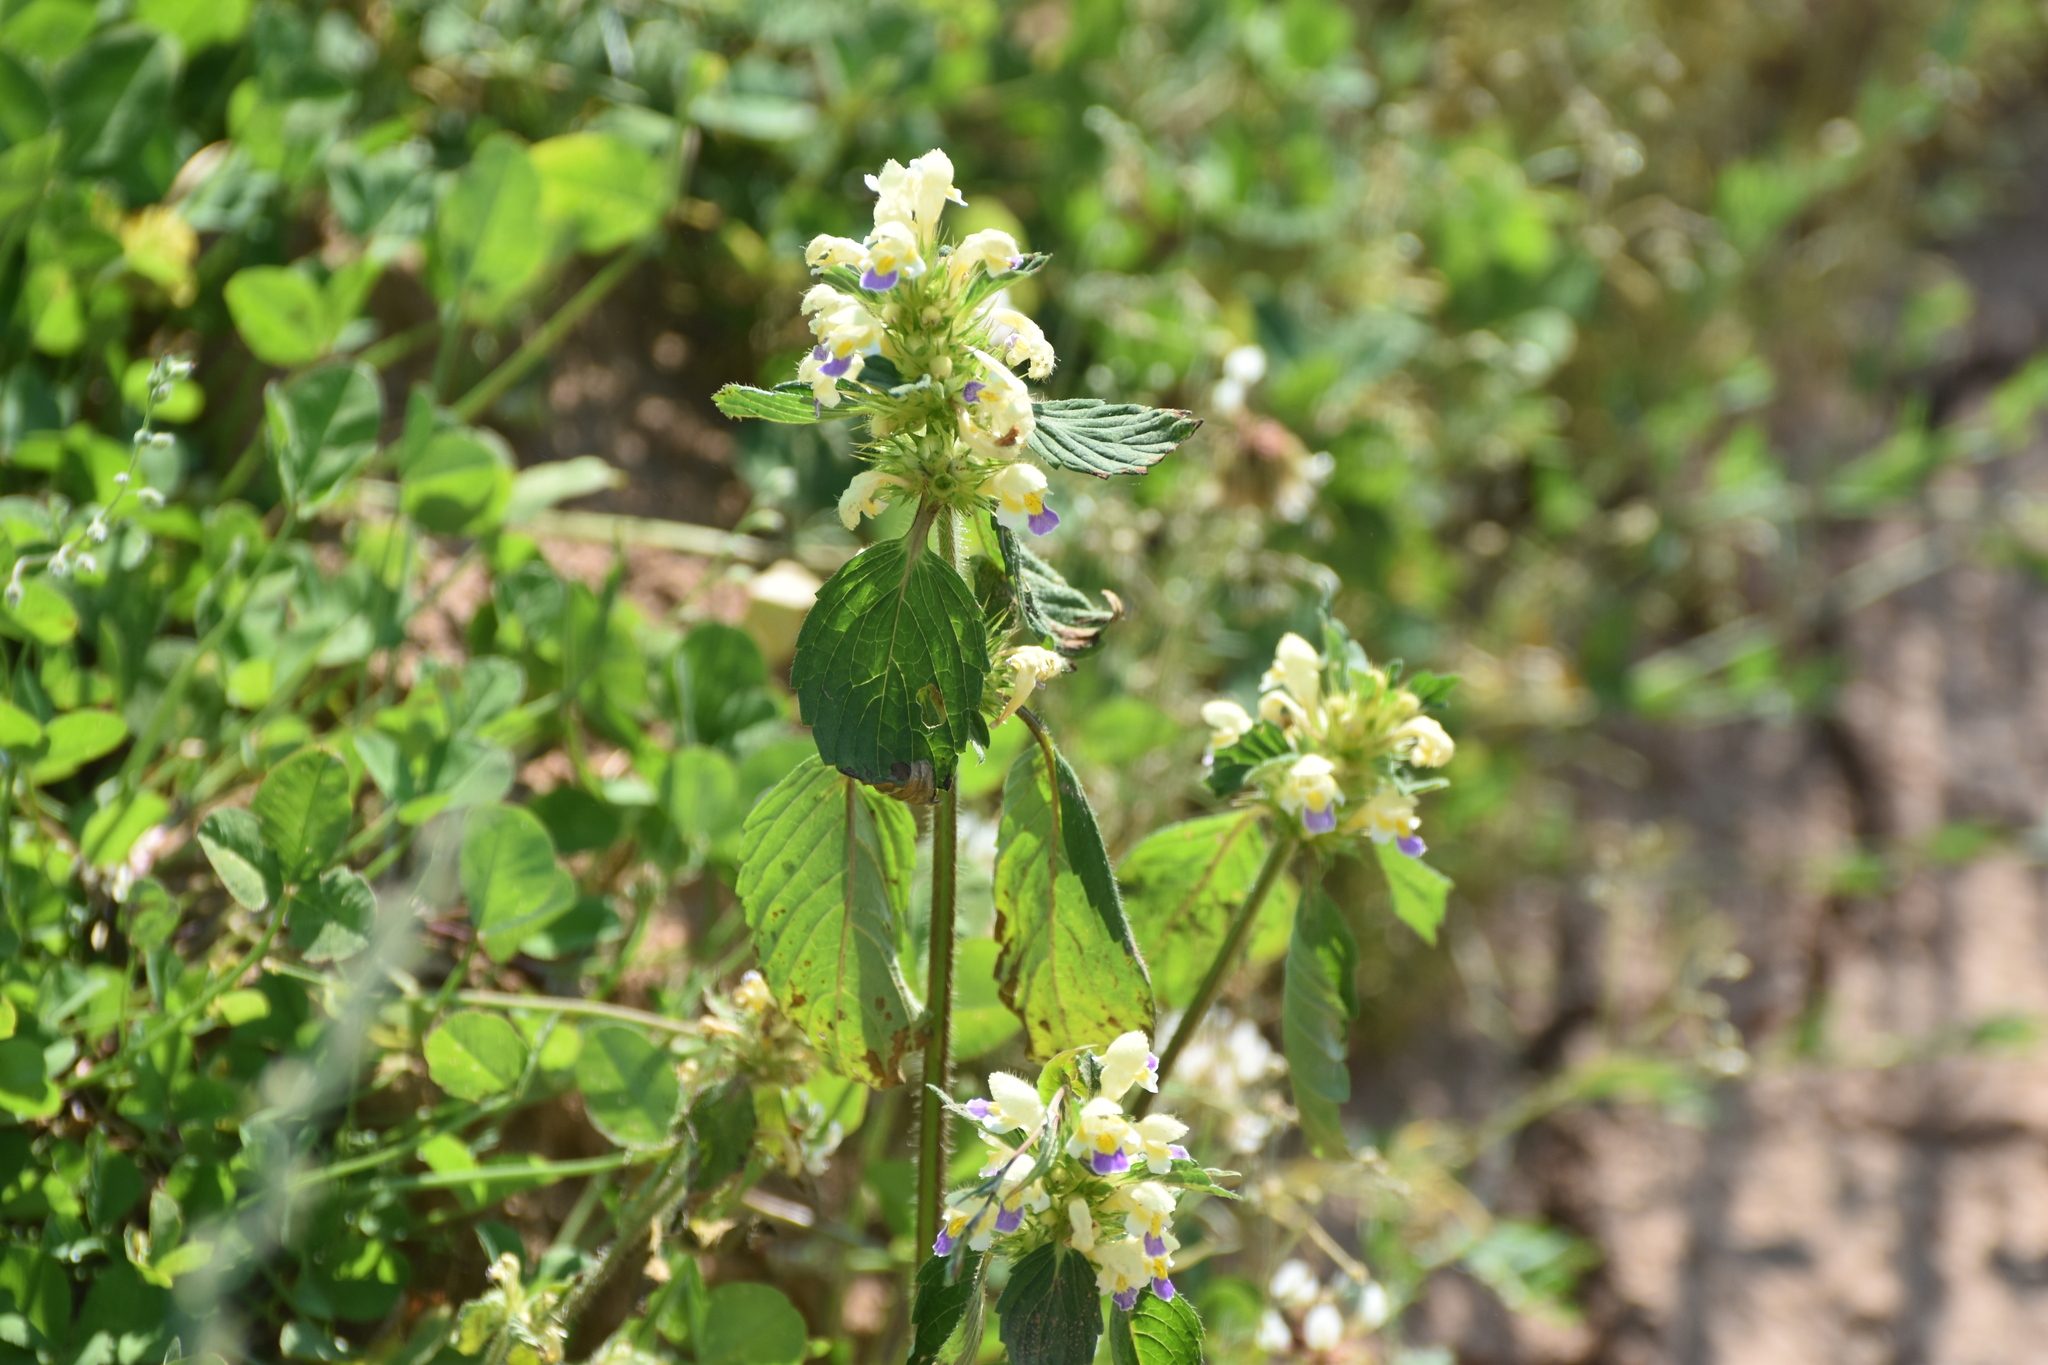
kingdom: Plantae
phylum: Tracheophyta
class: Magnoliopsida
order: Lamiales
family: Lamiaceae
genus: Galeopsis
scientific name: Galeopsis speciosa
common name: Large-flowered hemp-nettle
